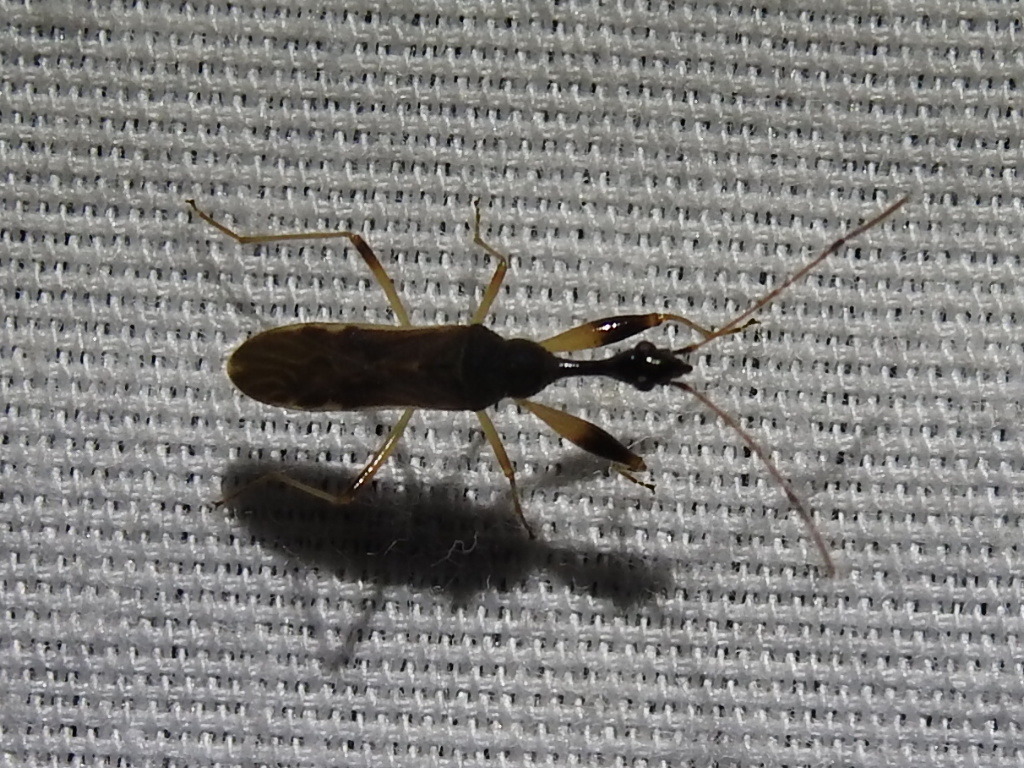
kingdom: Animalia
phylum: Arthropoda
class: Insecta
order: Hemiptera
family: Rhyparochromidae
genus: Myodocha
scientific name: Myodocha serripes
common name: Long-necked seed bug
